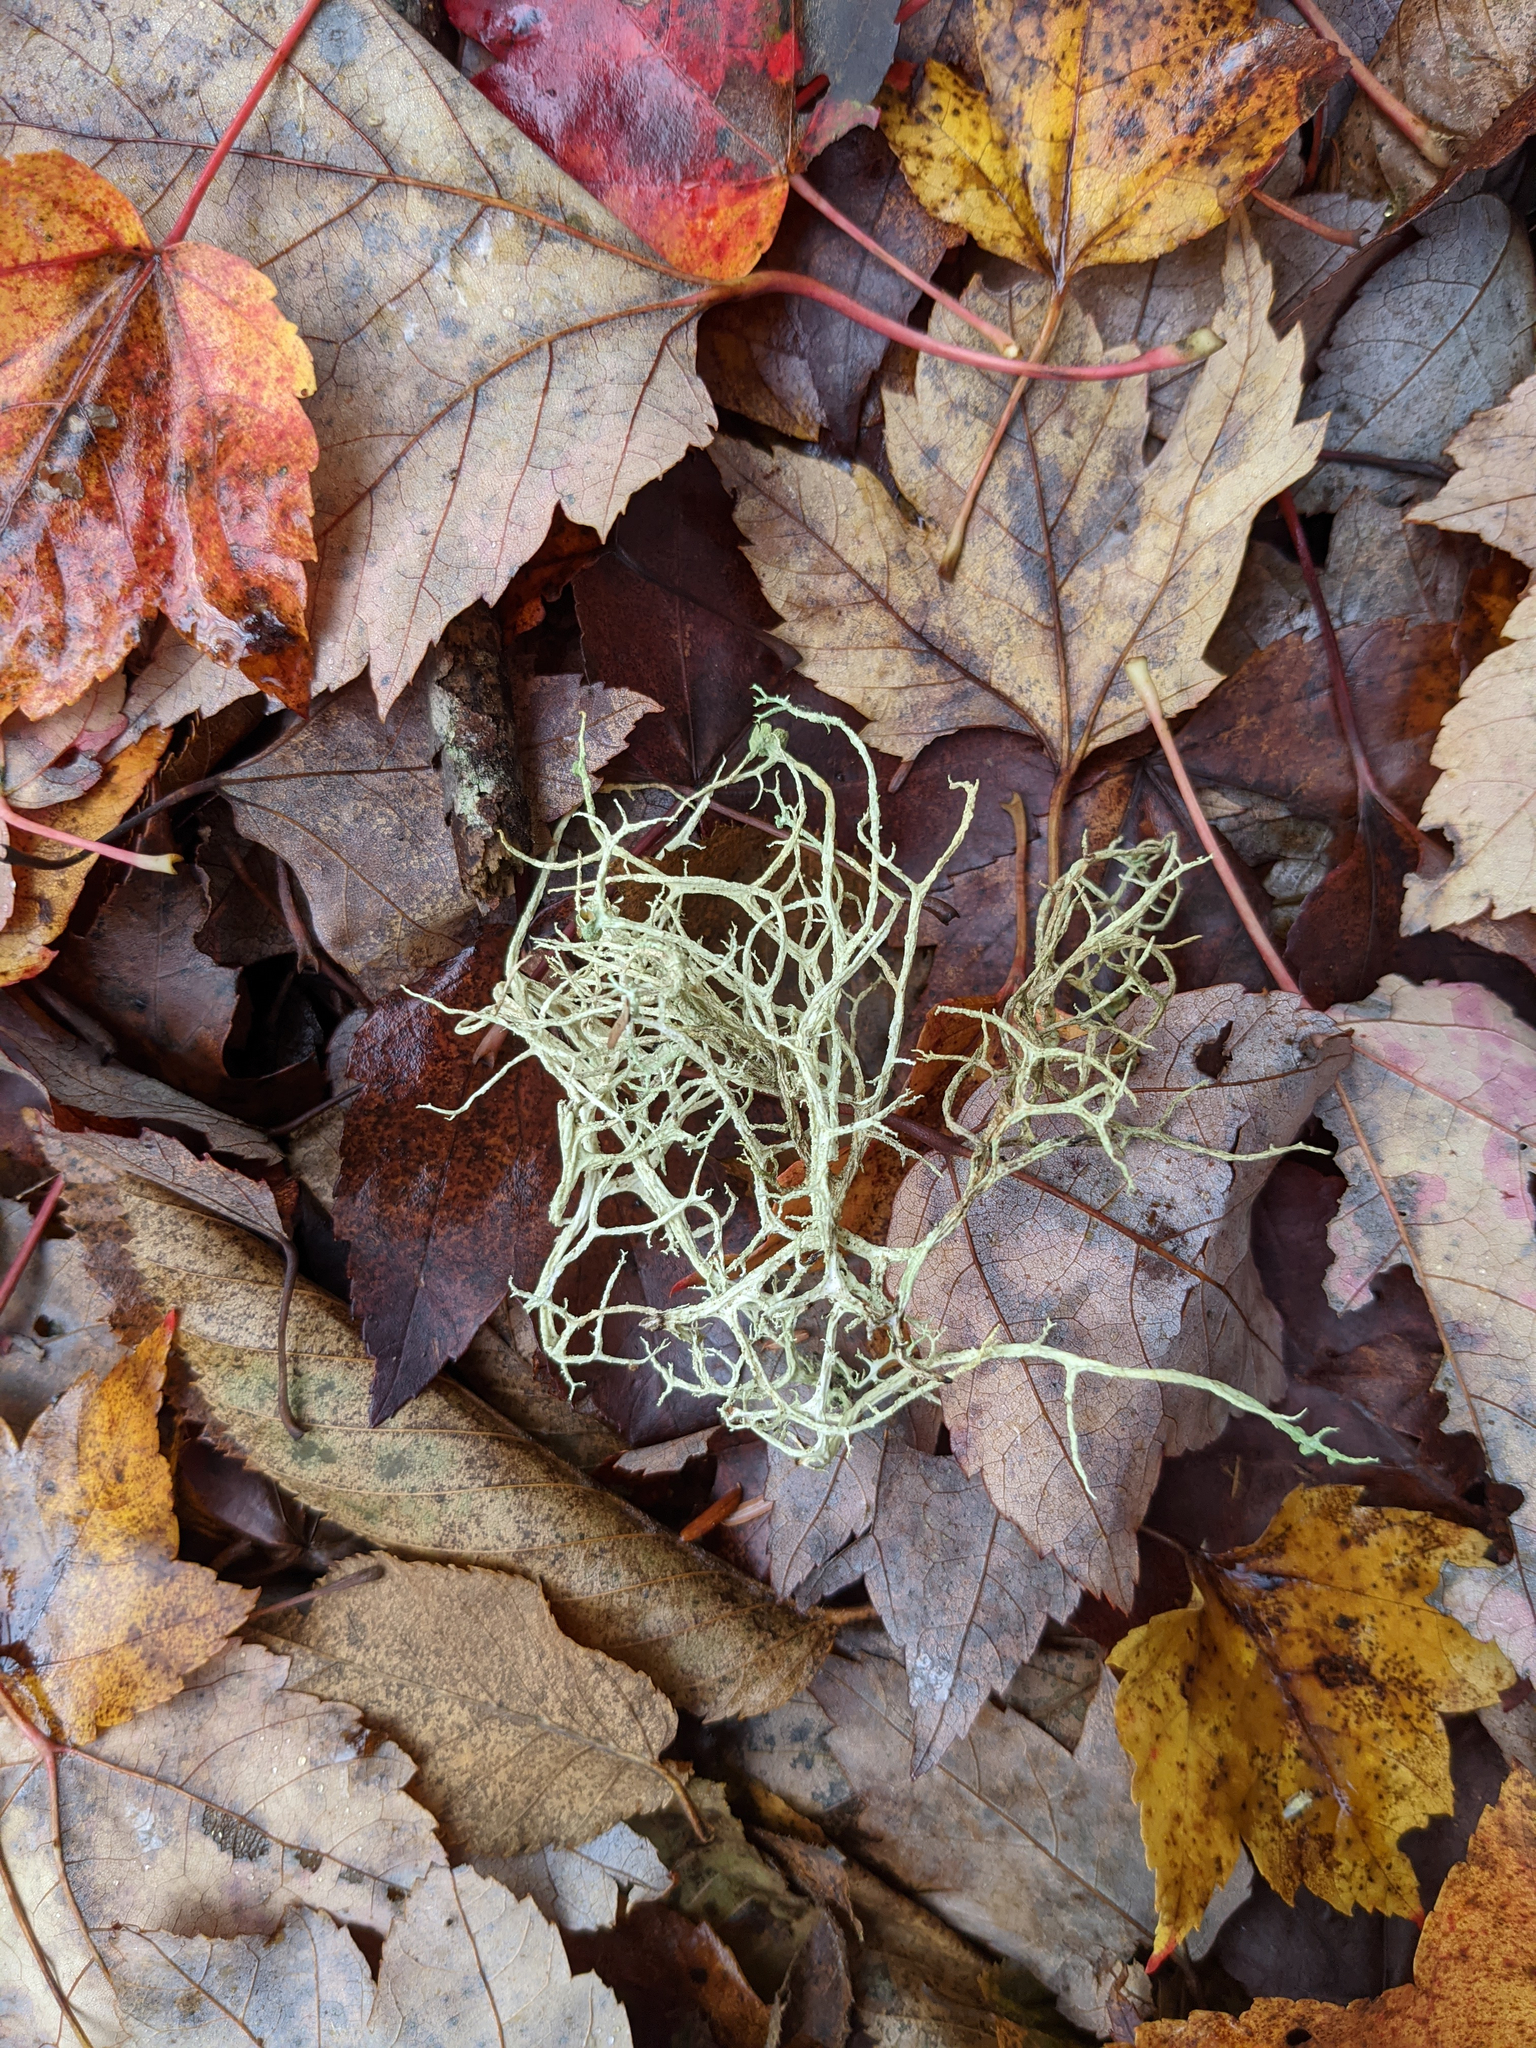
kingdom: Fungi
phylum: Ascomycota
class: Lecanoromycetes
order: Lecanorales
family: Parmeliaceae
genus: Evernia
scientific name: Evernia mesomorpha
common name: Boreal oak moss lichen
